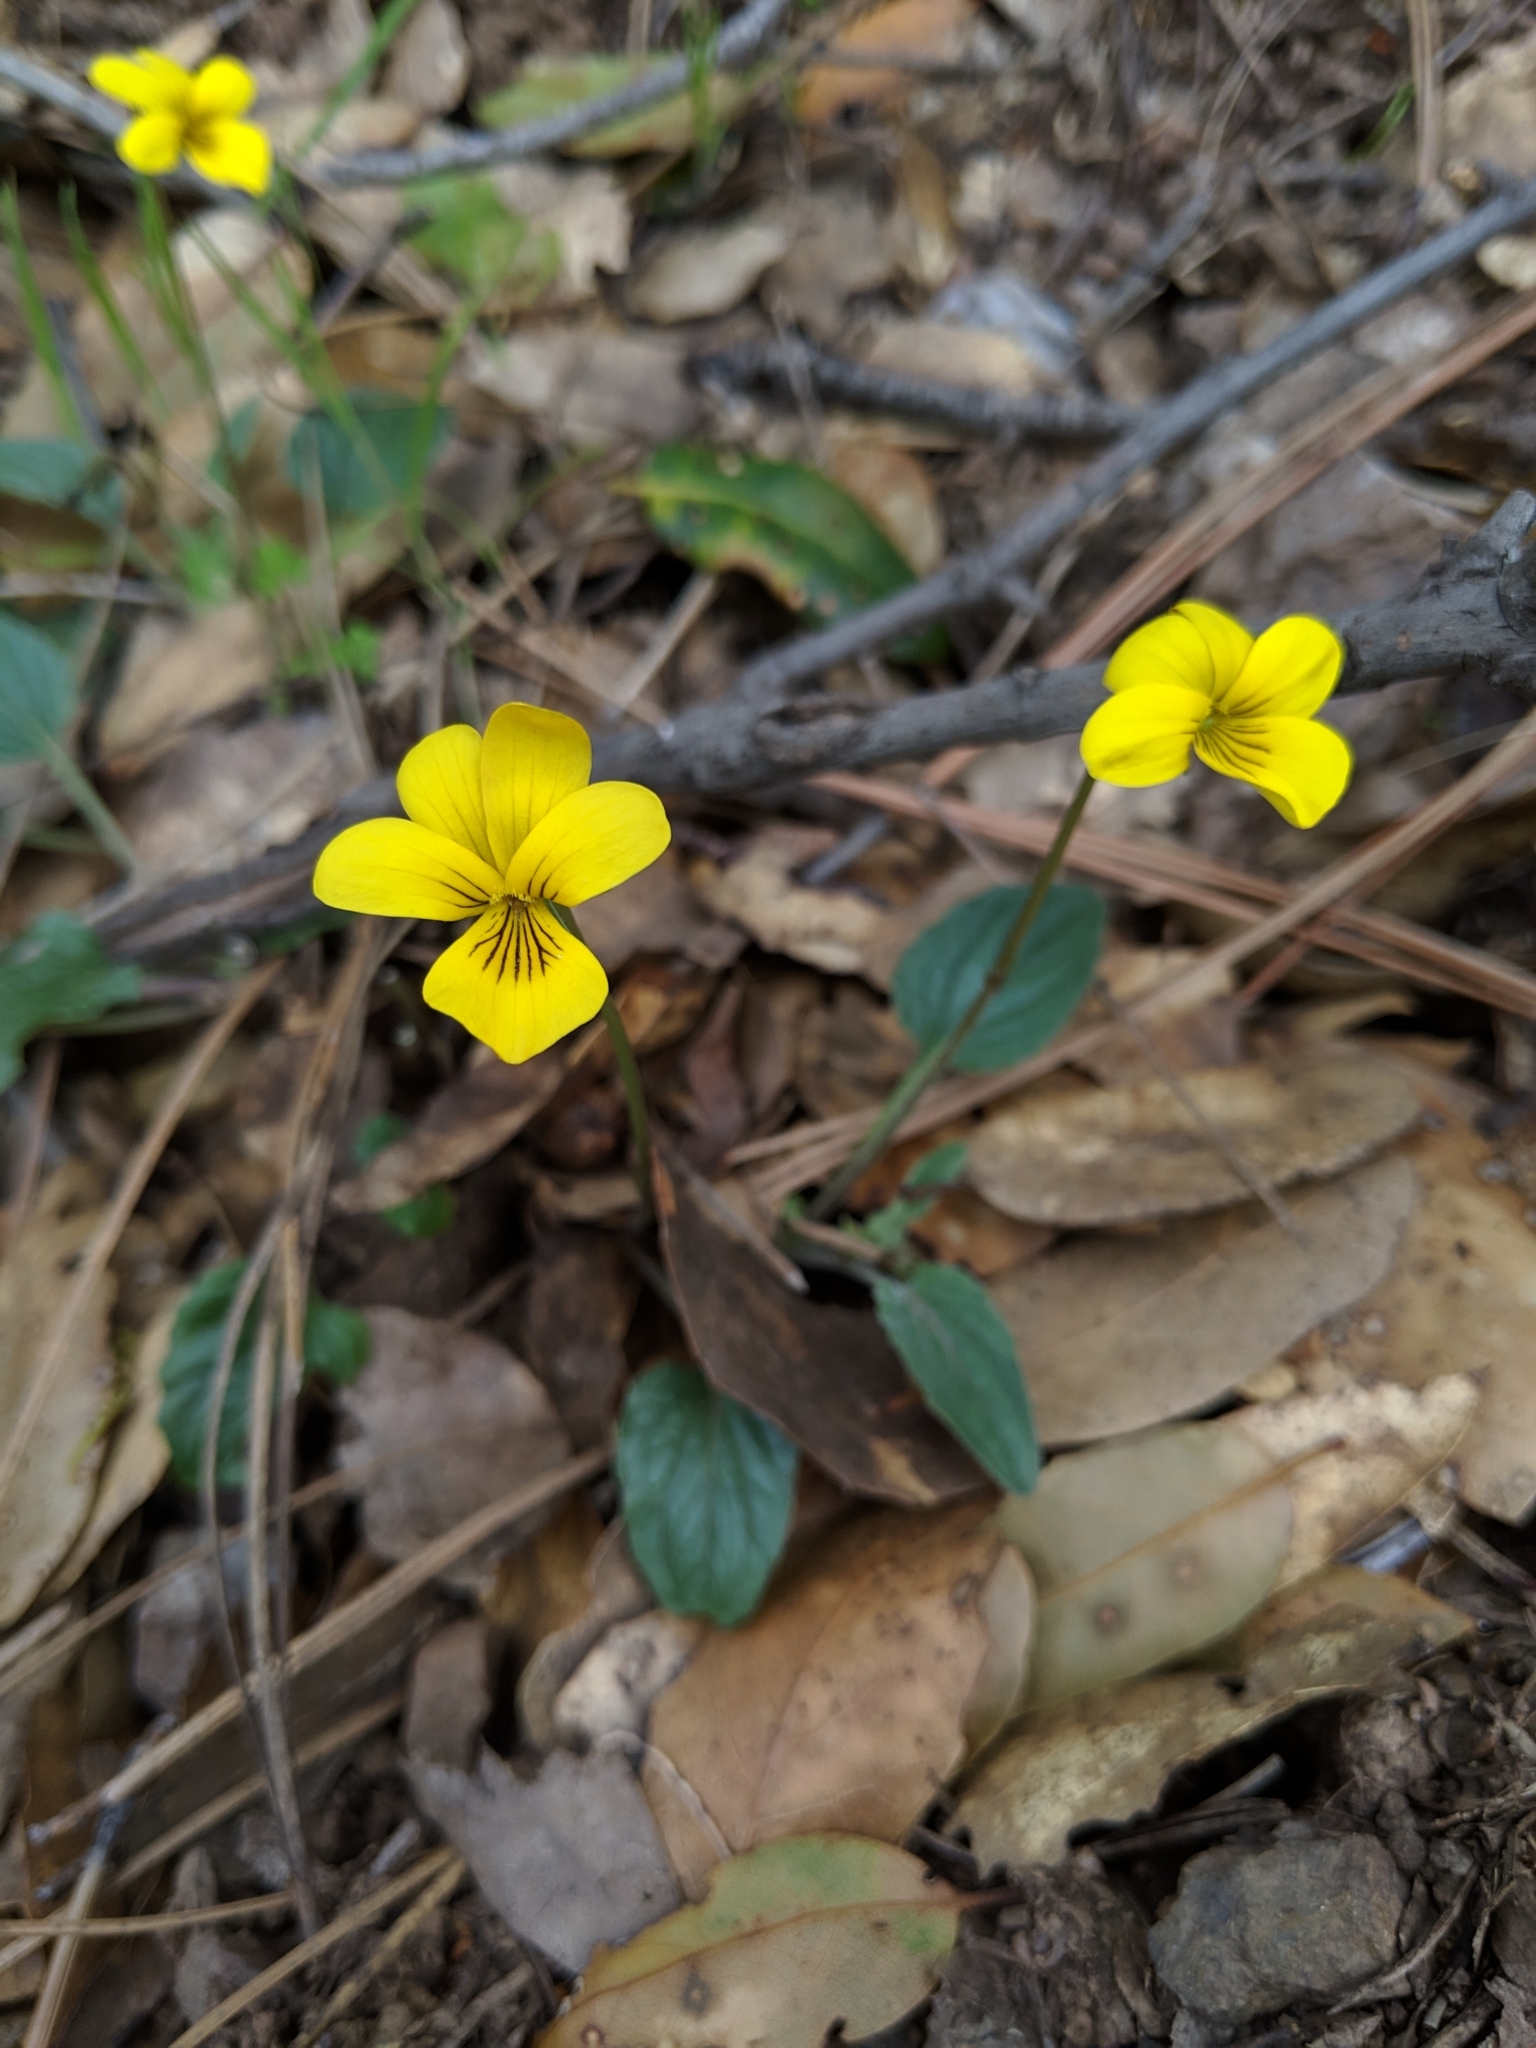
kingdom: Plantae
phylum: Tracheophyta
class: Magnoliopsida
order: Malpighiales
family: Violaceae
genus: Viola
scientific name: Viola purpurea
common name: Pine violet
